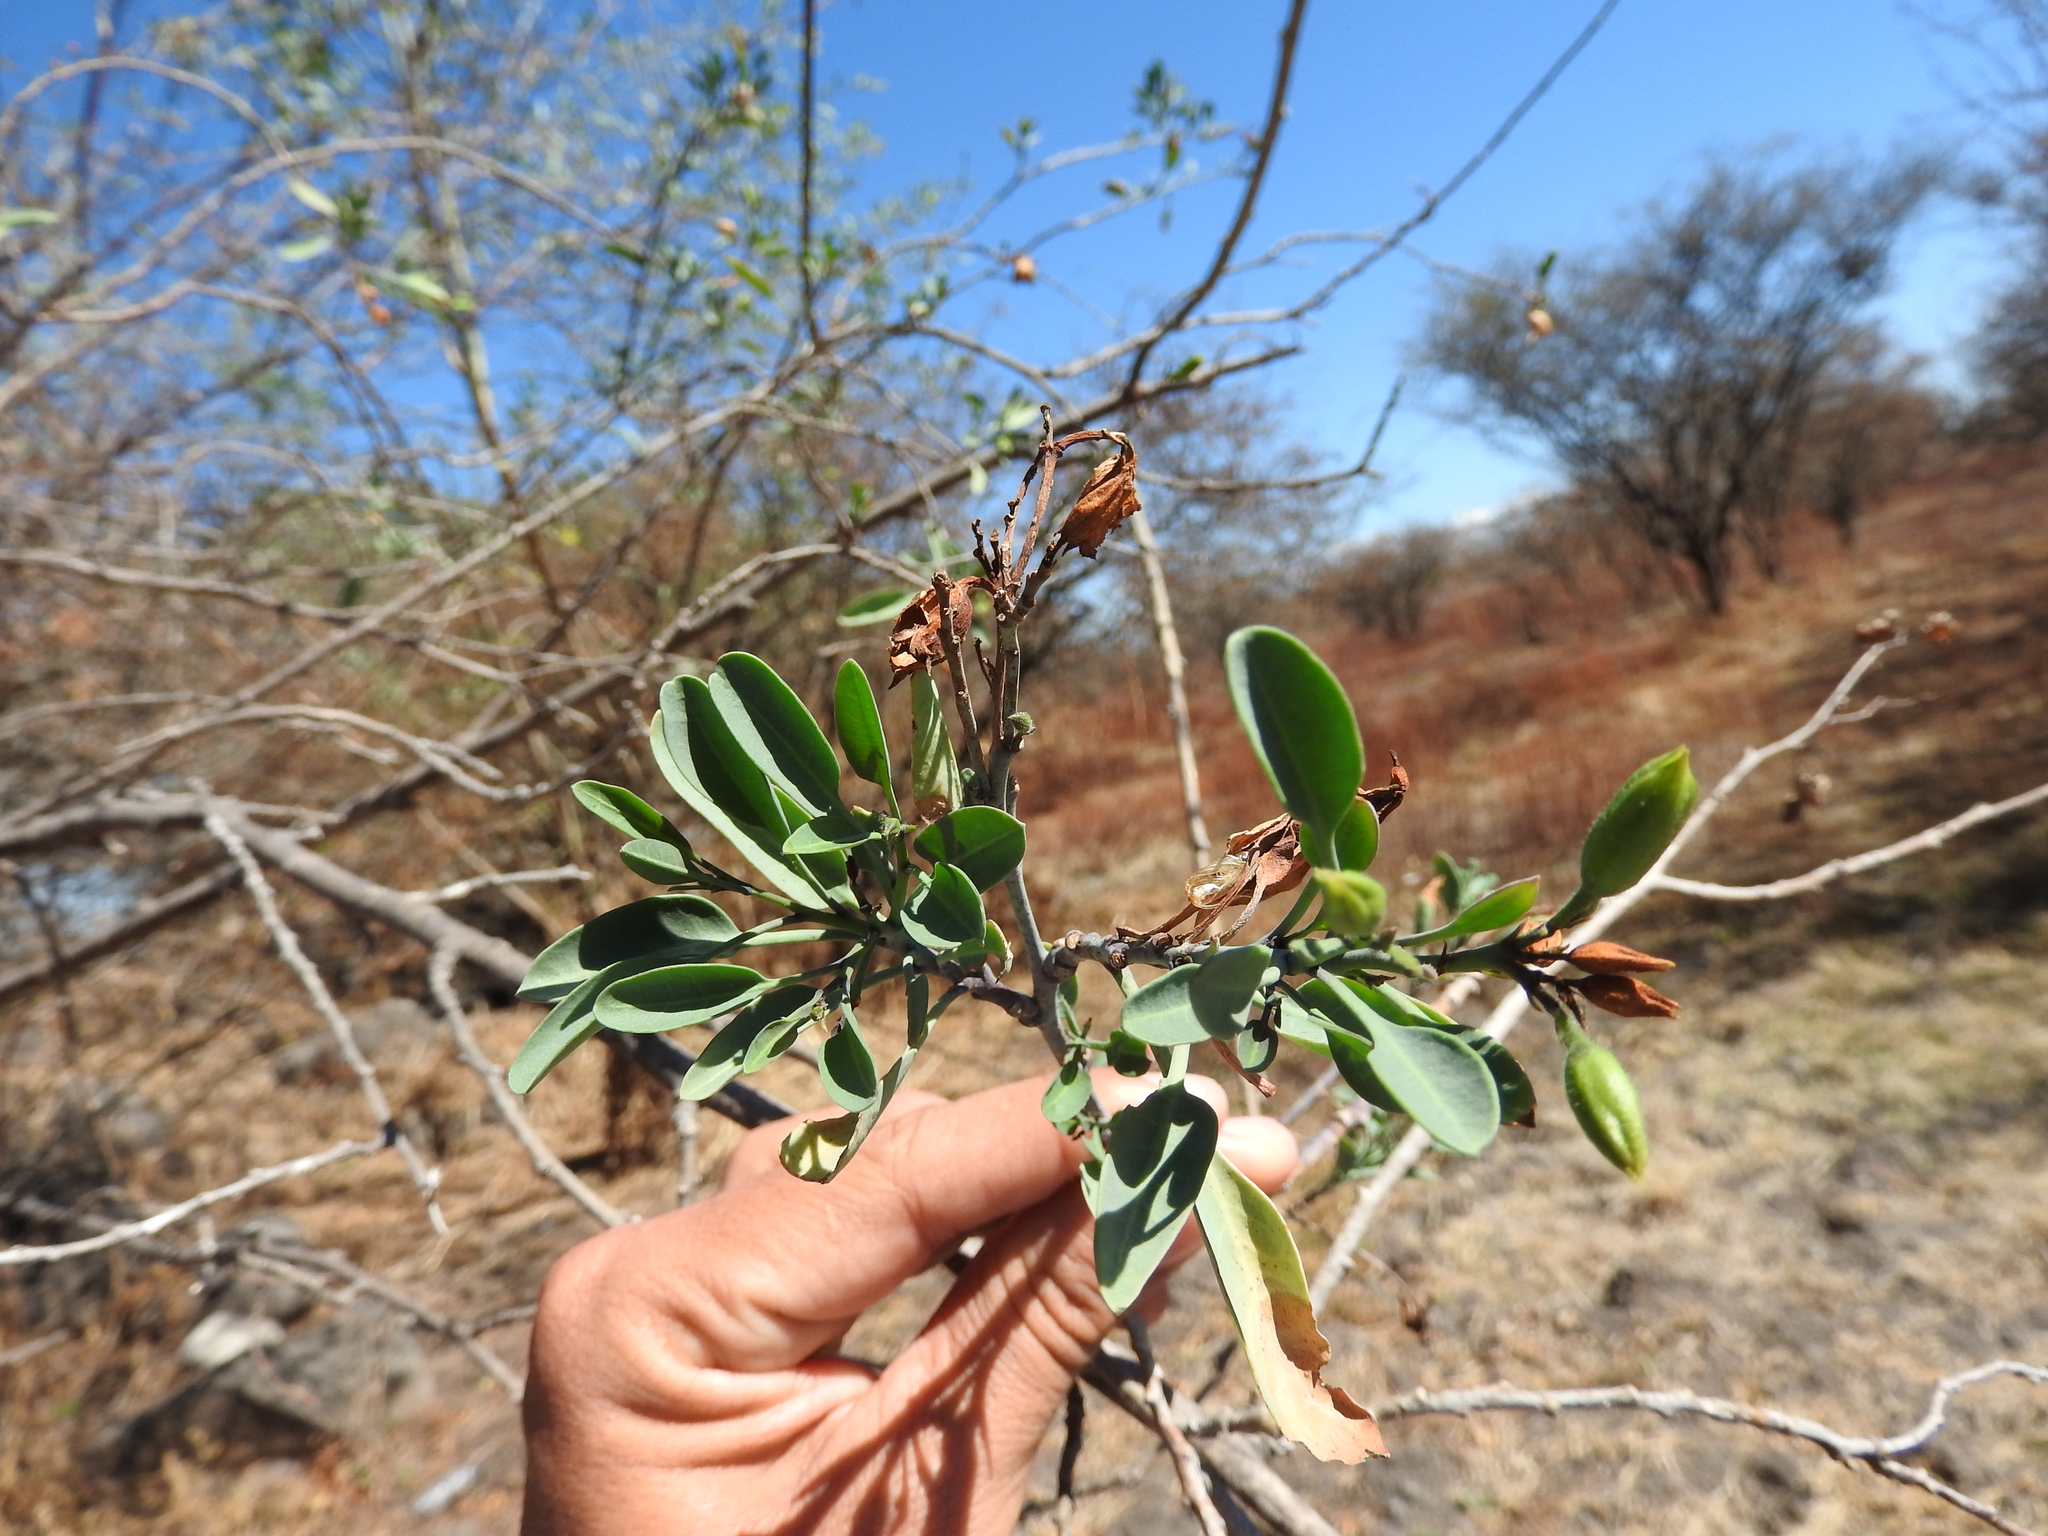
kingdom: Plantae
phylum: Tracheophyta
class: Magnoliopsida
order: Solanales
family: Solanaceae
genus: Nicotiana
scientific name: Nicotiana glauca
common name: Tree tobacco
